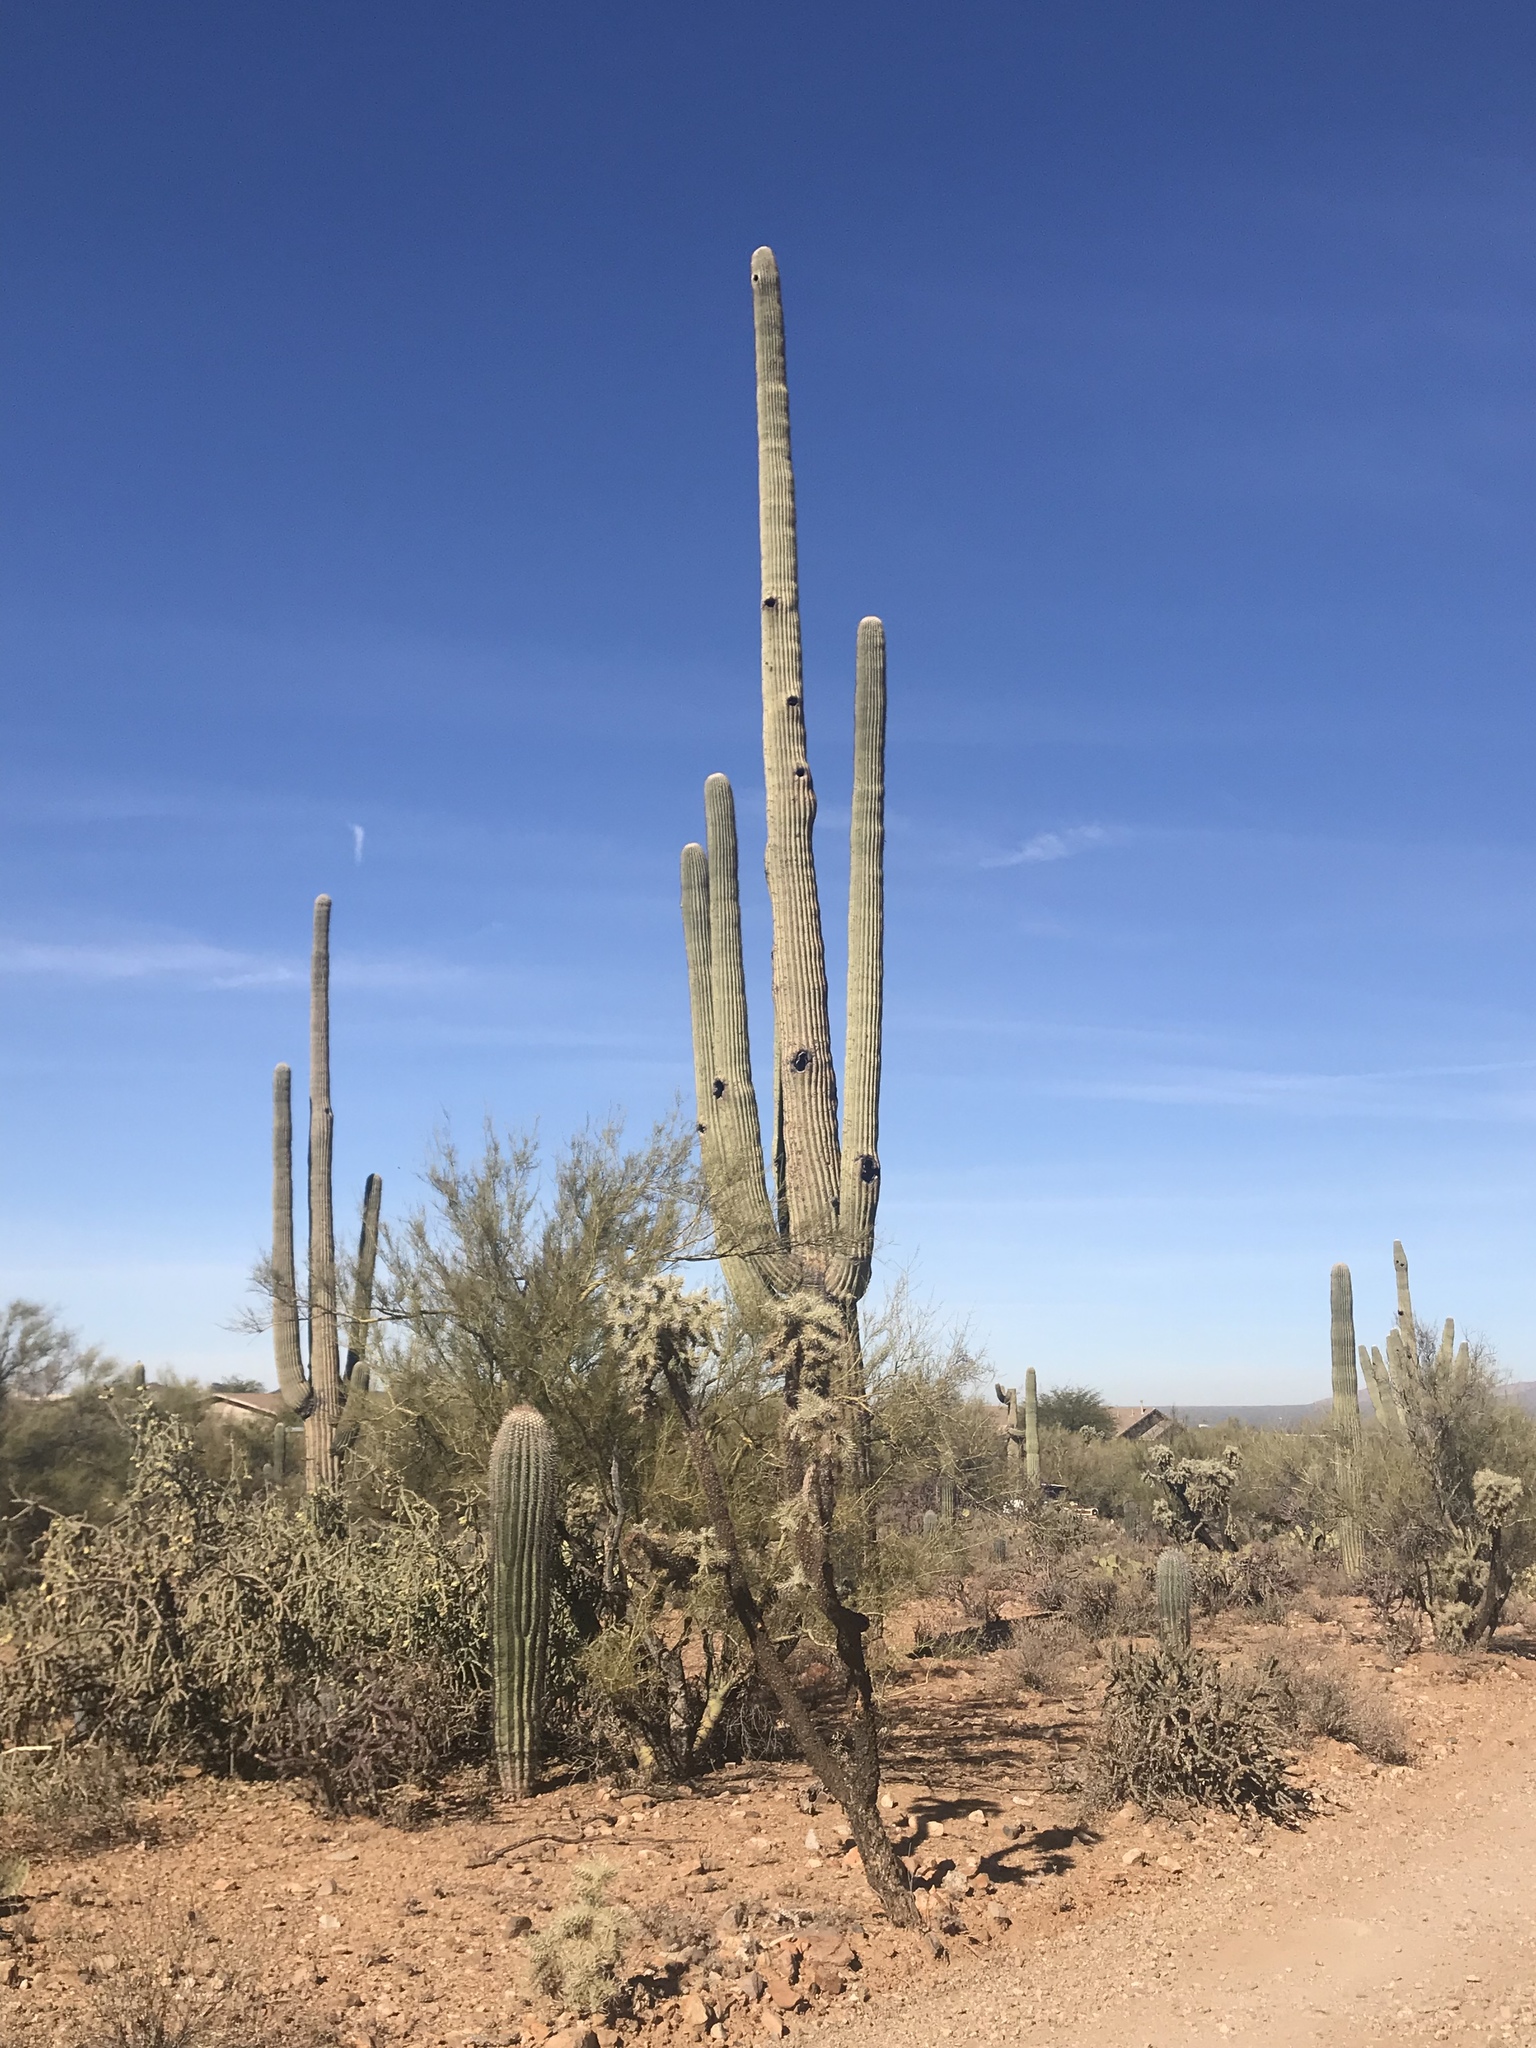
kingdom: Plantae
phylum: Tracheophyta
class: Magnoliopsida
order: Caryophyllales
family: Cactaceae
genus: Carnegiea
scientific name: Carnegiea gigantea
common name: Saguaro
